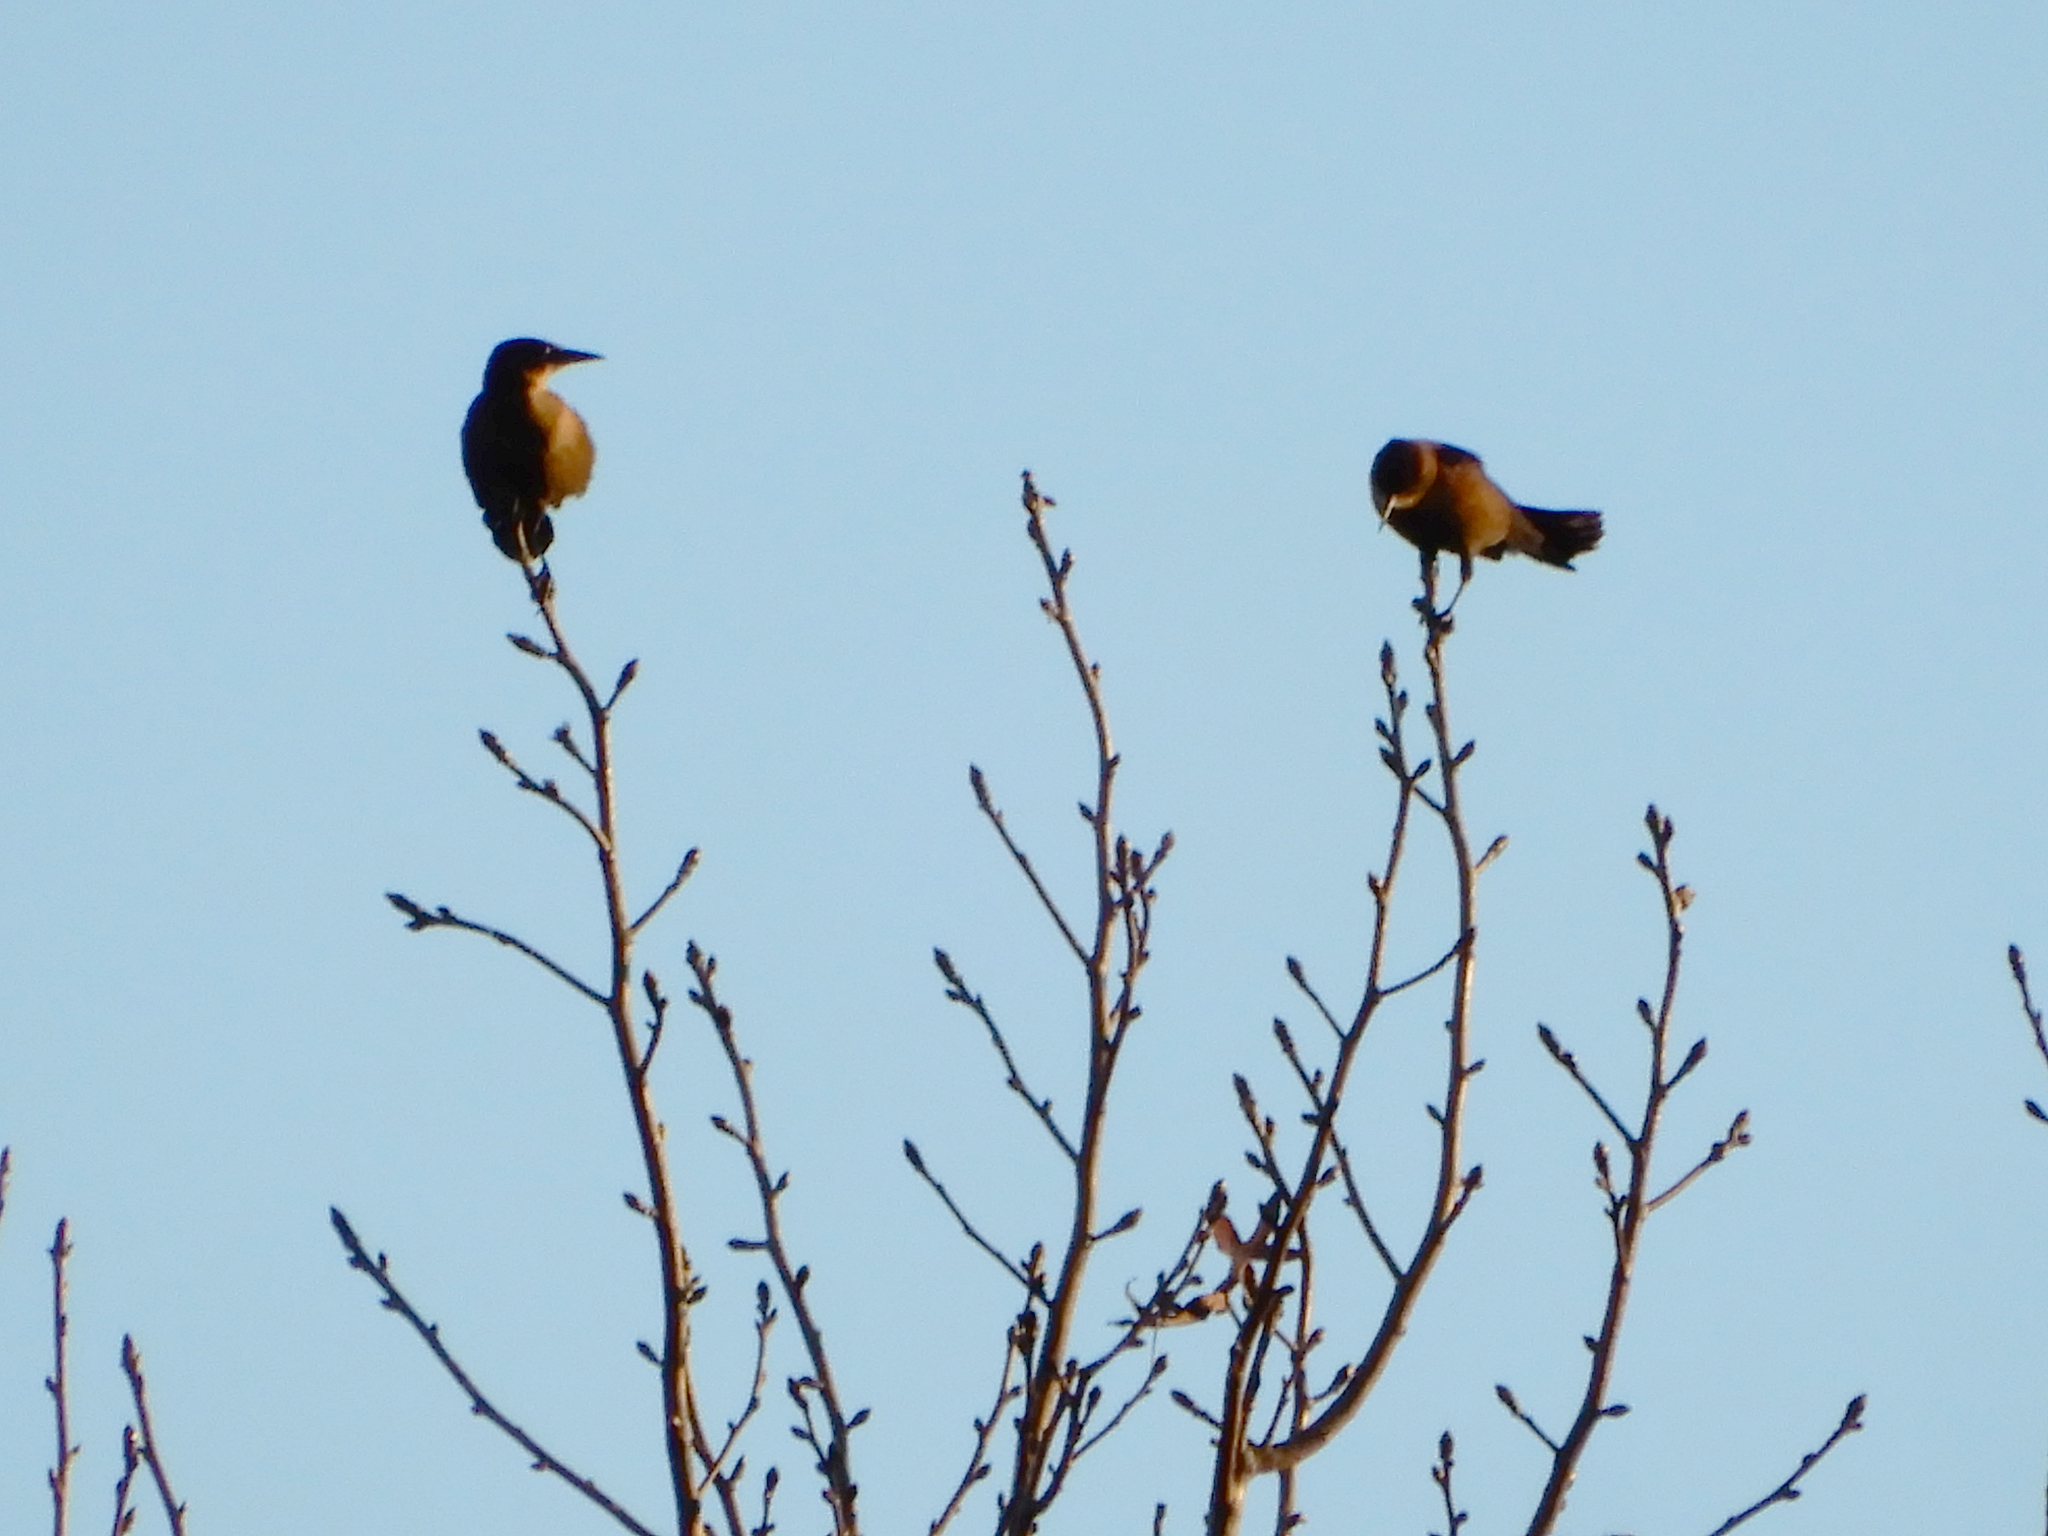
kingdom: Animalia
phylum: Chordata
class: Aves
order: Passeriformes
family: Icteridae
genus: Quiscalus
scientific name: Quiscalus major
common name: Boat-tailed grackle
